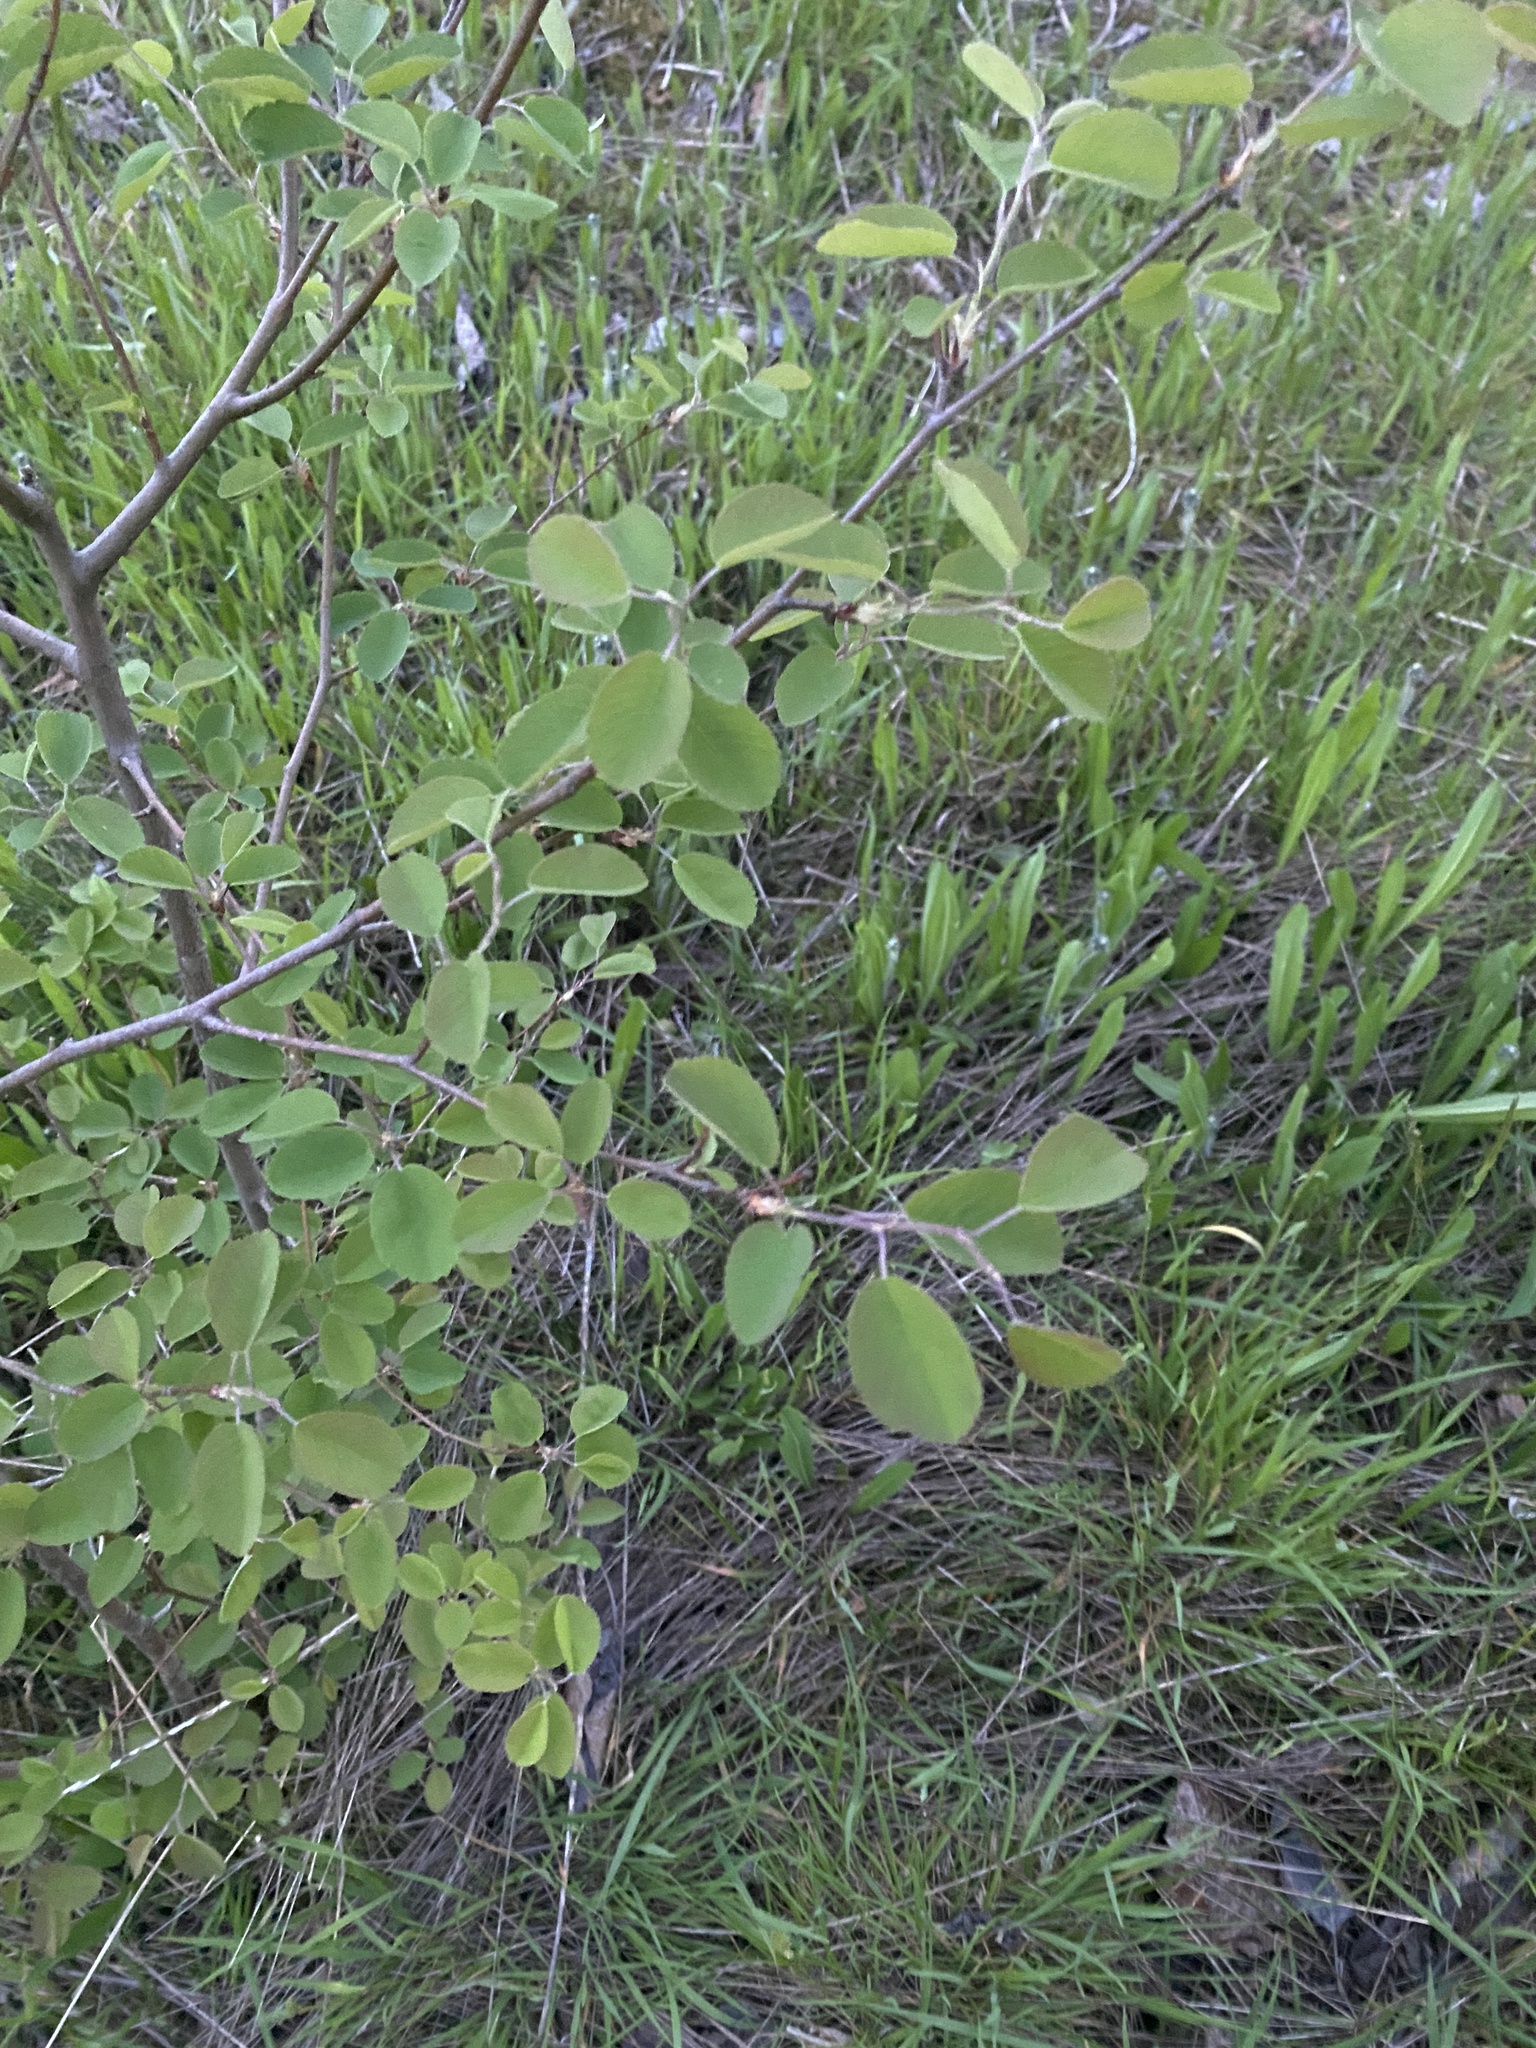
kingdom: Plantae
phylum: Tracheophyta
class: Magnoliopsida
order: Rosales
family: Rosaceae
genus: Amelanchier
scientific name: Amelanchier alnifolia
